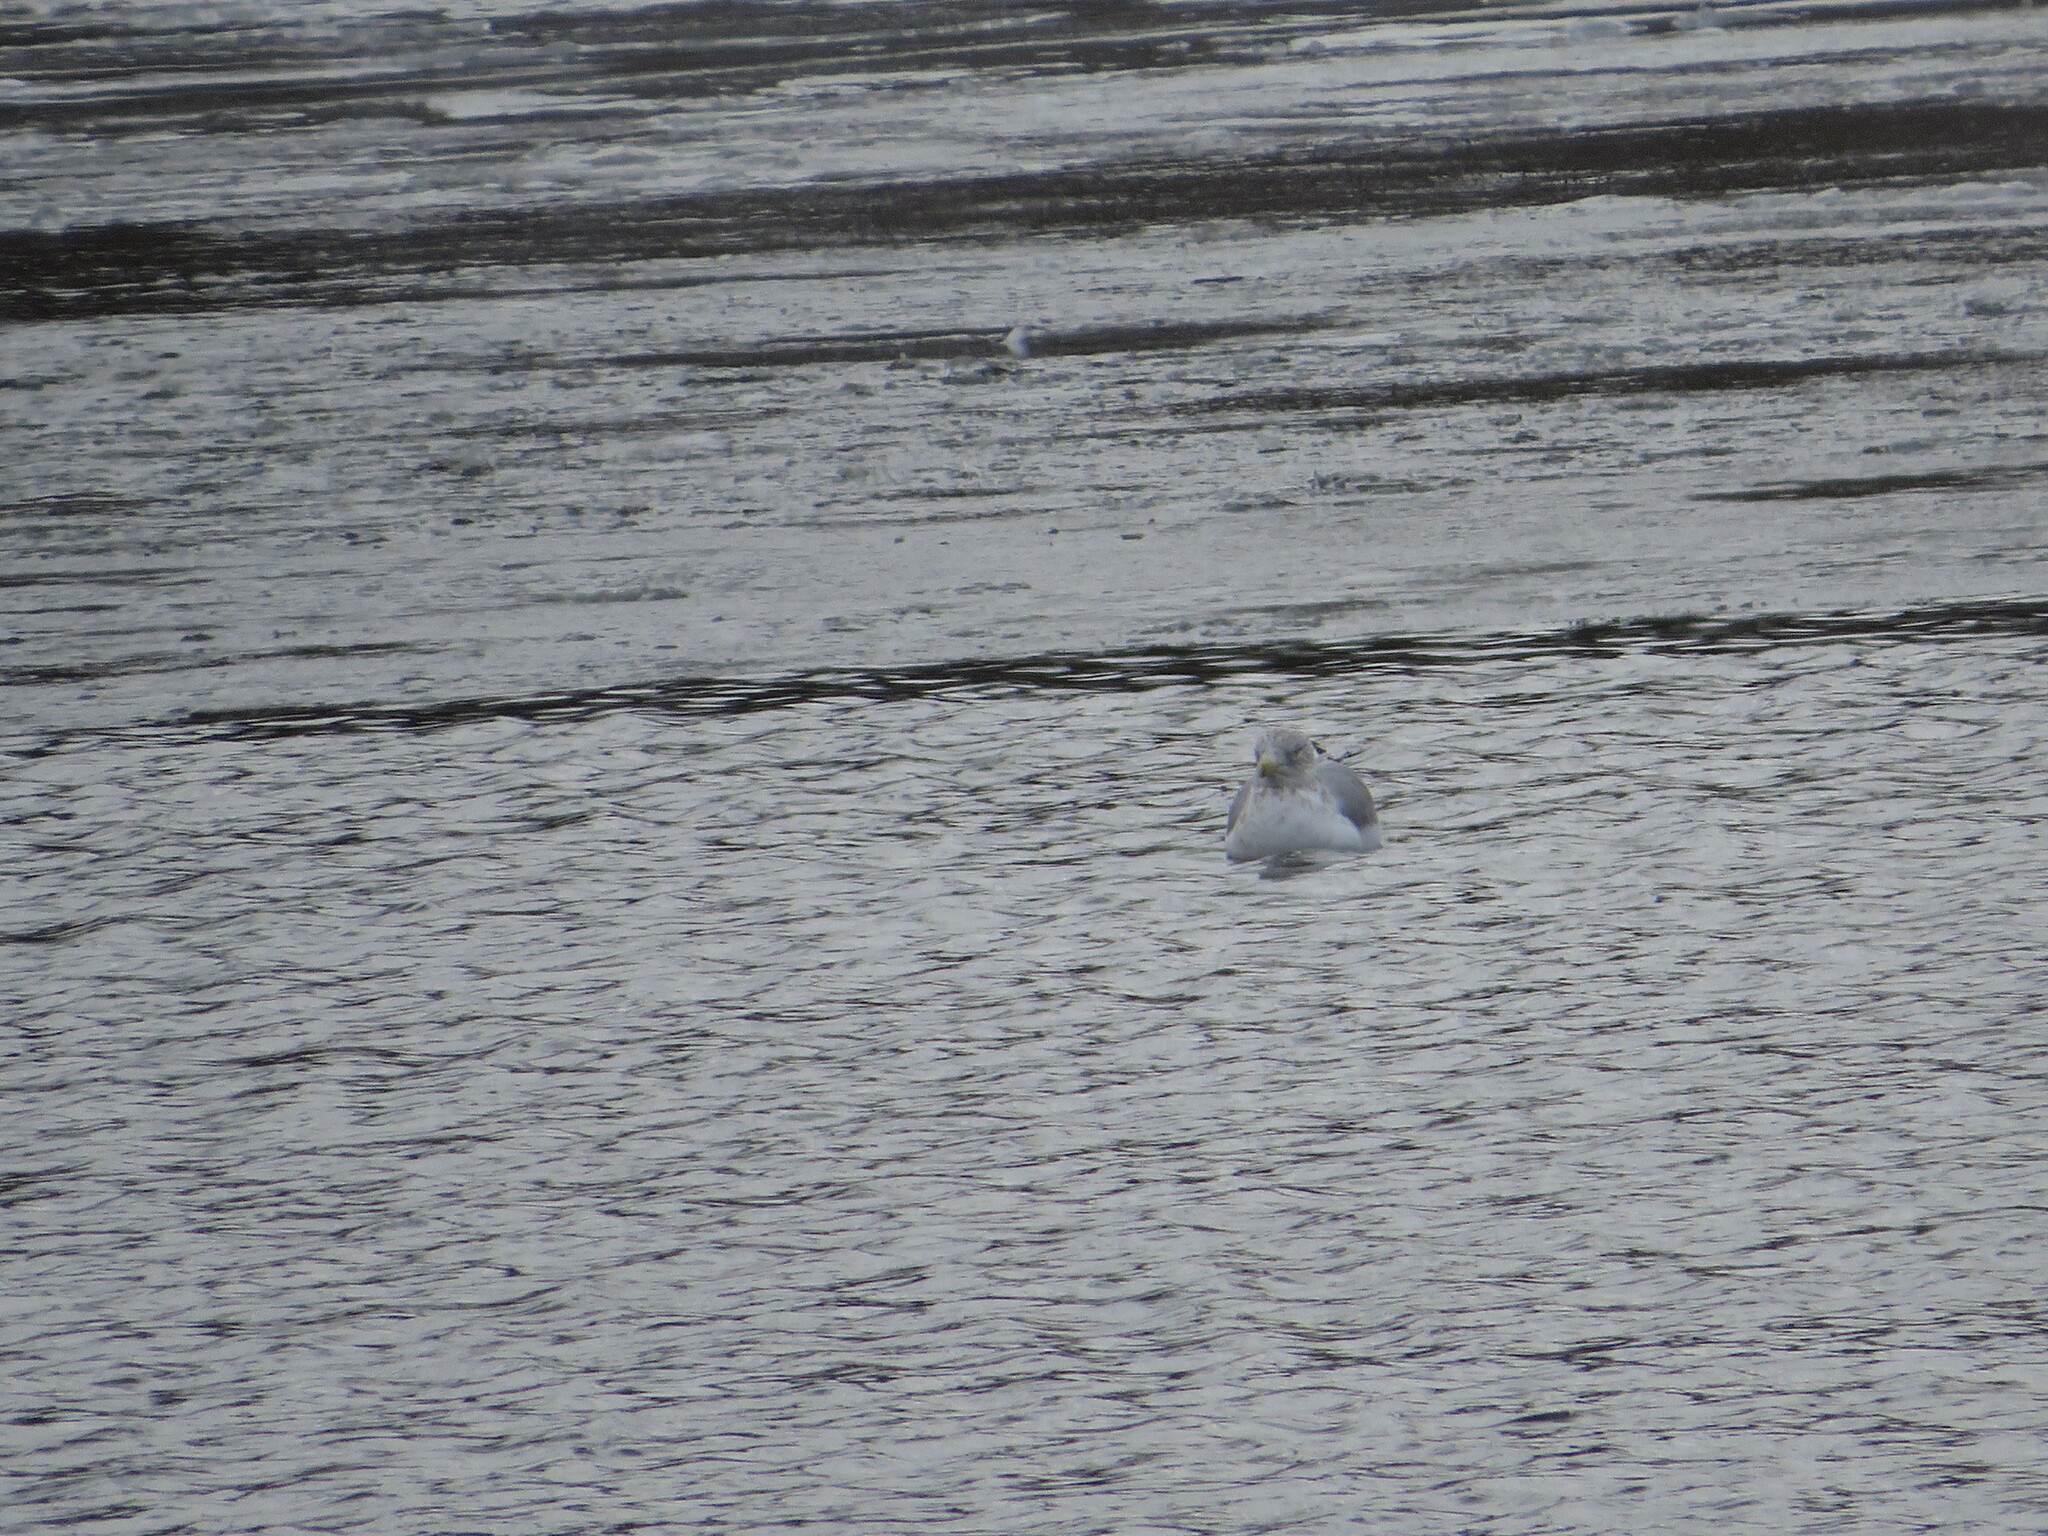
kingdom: Animalia
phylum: Chordata
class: Aves
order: Charadriiformes
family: Laridae
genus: Larus
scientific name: Larus argentatus
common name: Herring gull
